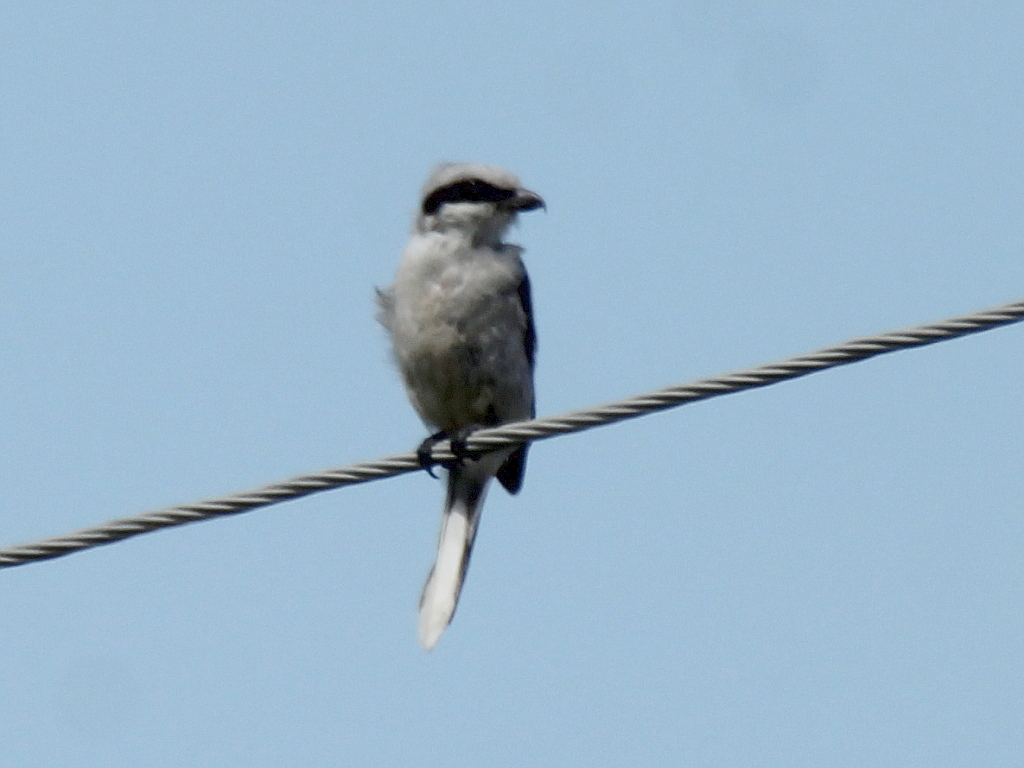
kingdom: Animalia
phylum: Chordata
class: Aves
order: Passeriformes
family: Laniidae
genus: Lanius
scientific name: Lanius excubitor
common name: Great grey shrike
